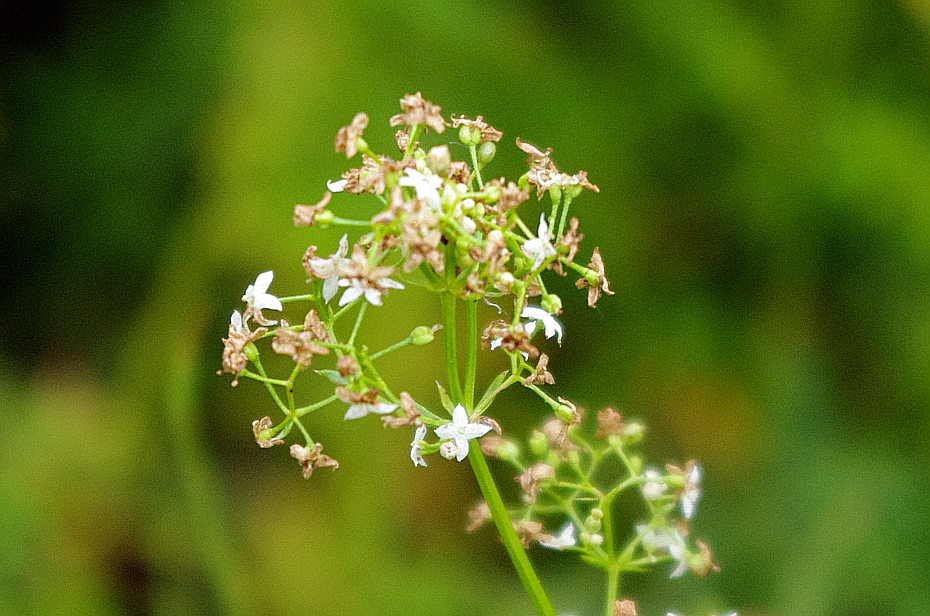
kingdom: Plantae
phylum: Tracheophyta
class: Magnoliopsida
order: Gentianales
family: Rubiaceae
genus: Galium
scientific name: Galium mollugo
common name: Hedge bedstraw
